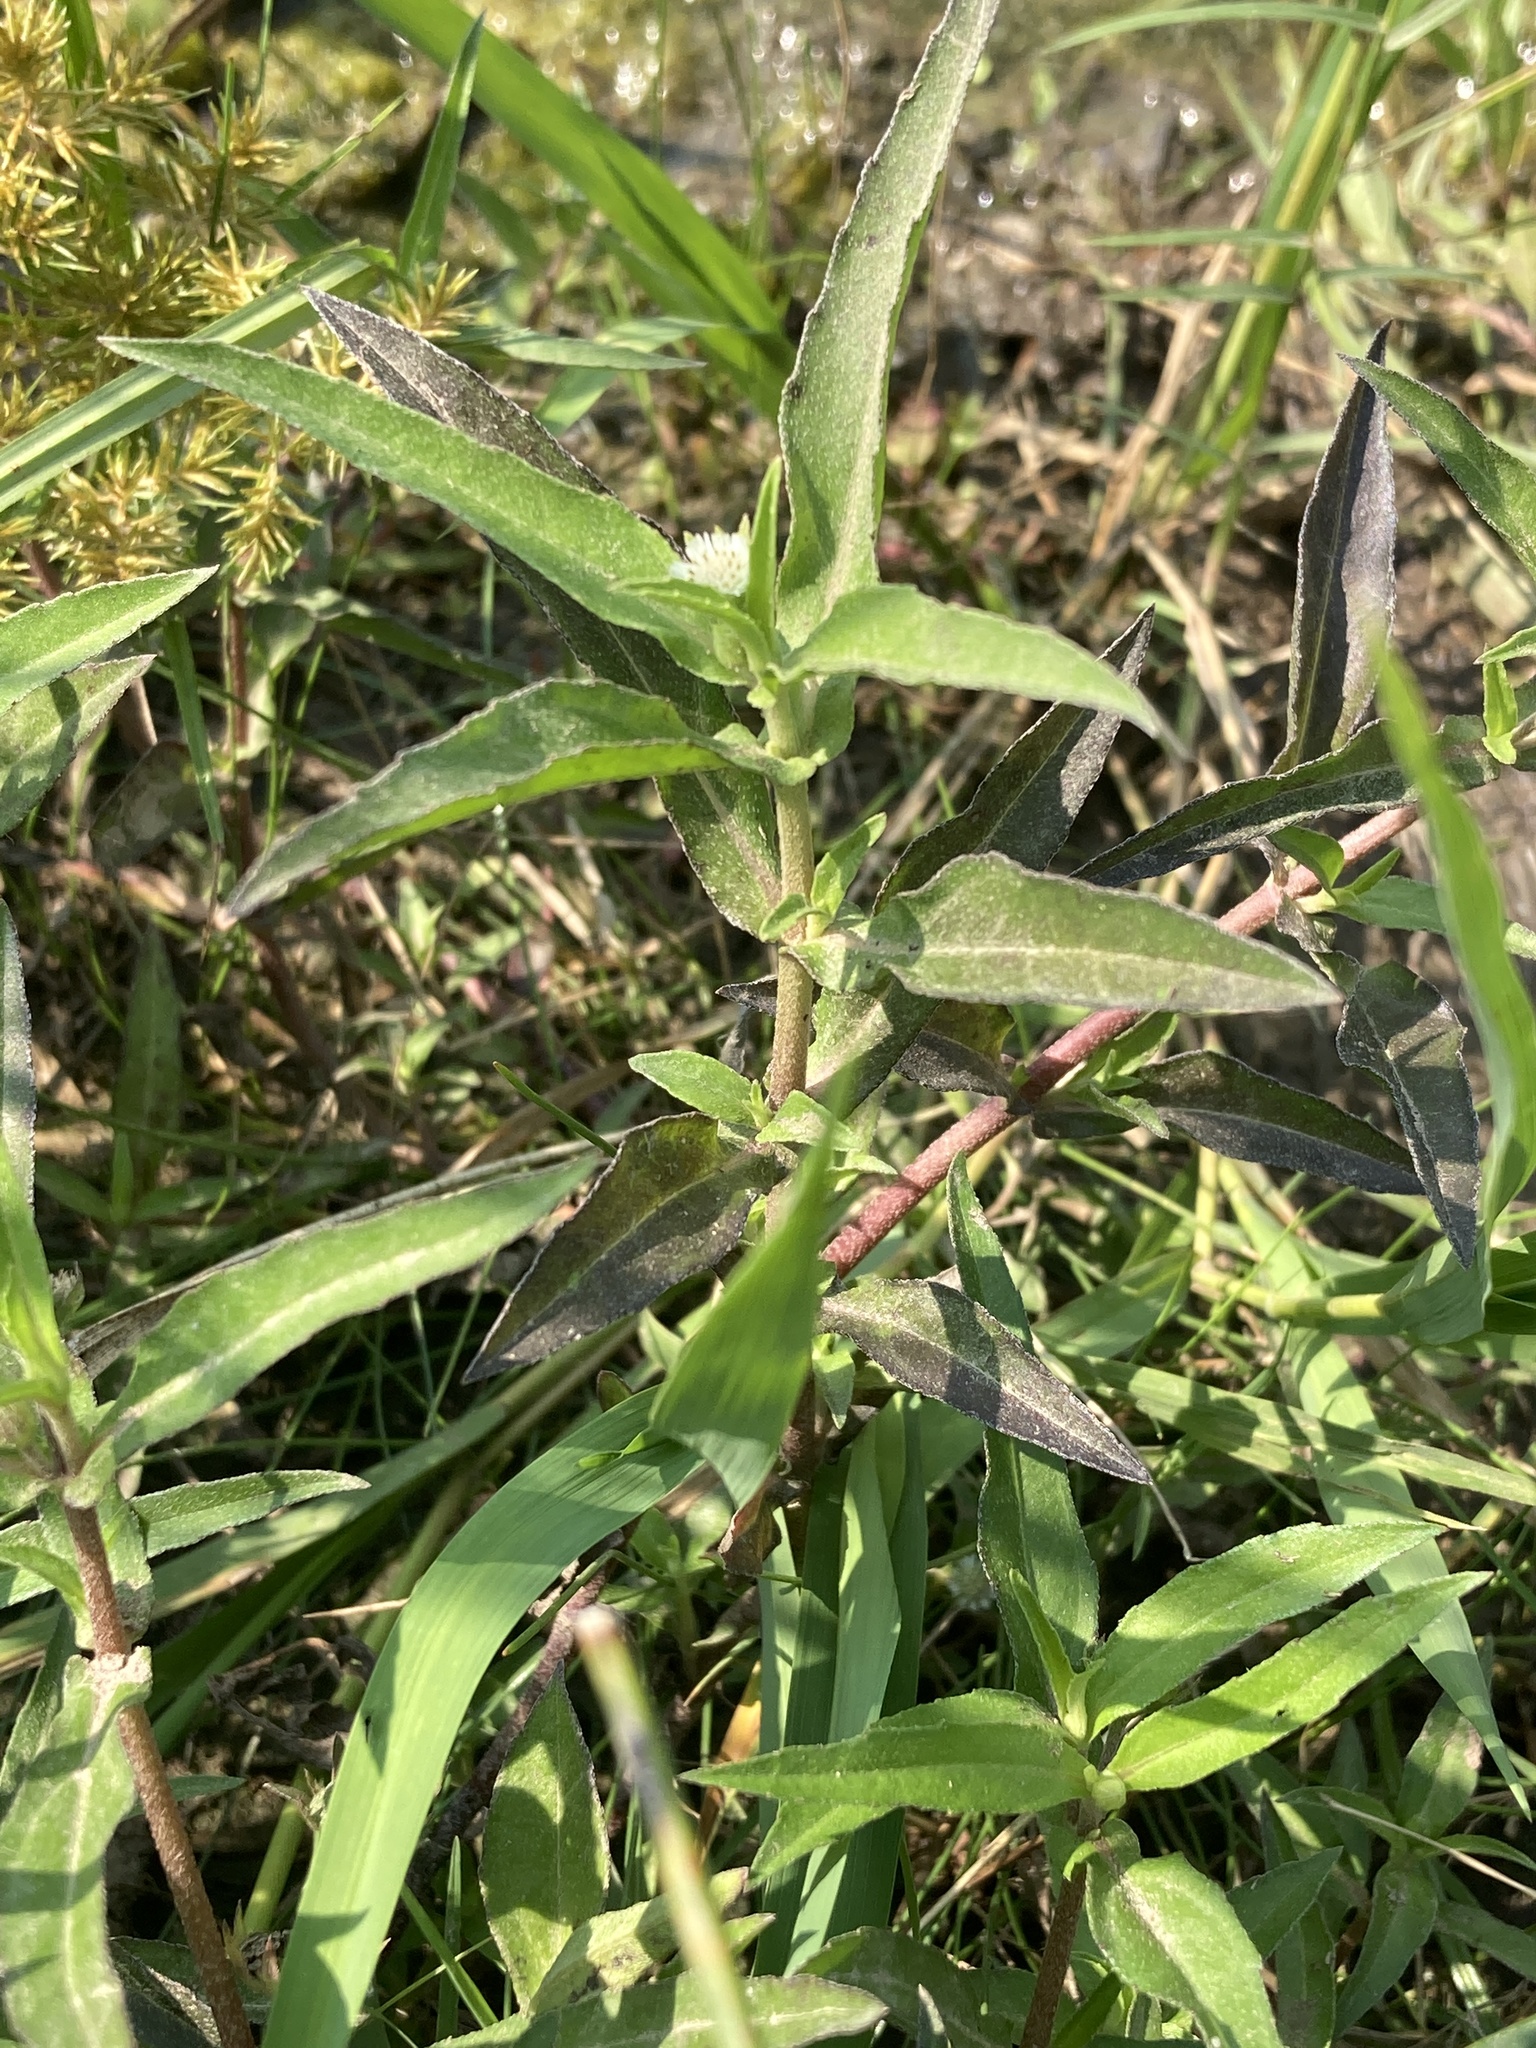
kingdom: Plantae
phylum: Tracheophyta
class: Magnoliopsida
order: Asterales
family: Asteraceae
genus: Eclipta
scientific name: Eclipta prostrata
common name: False daisy
